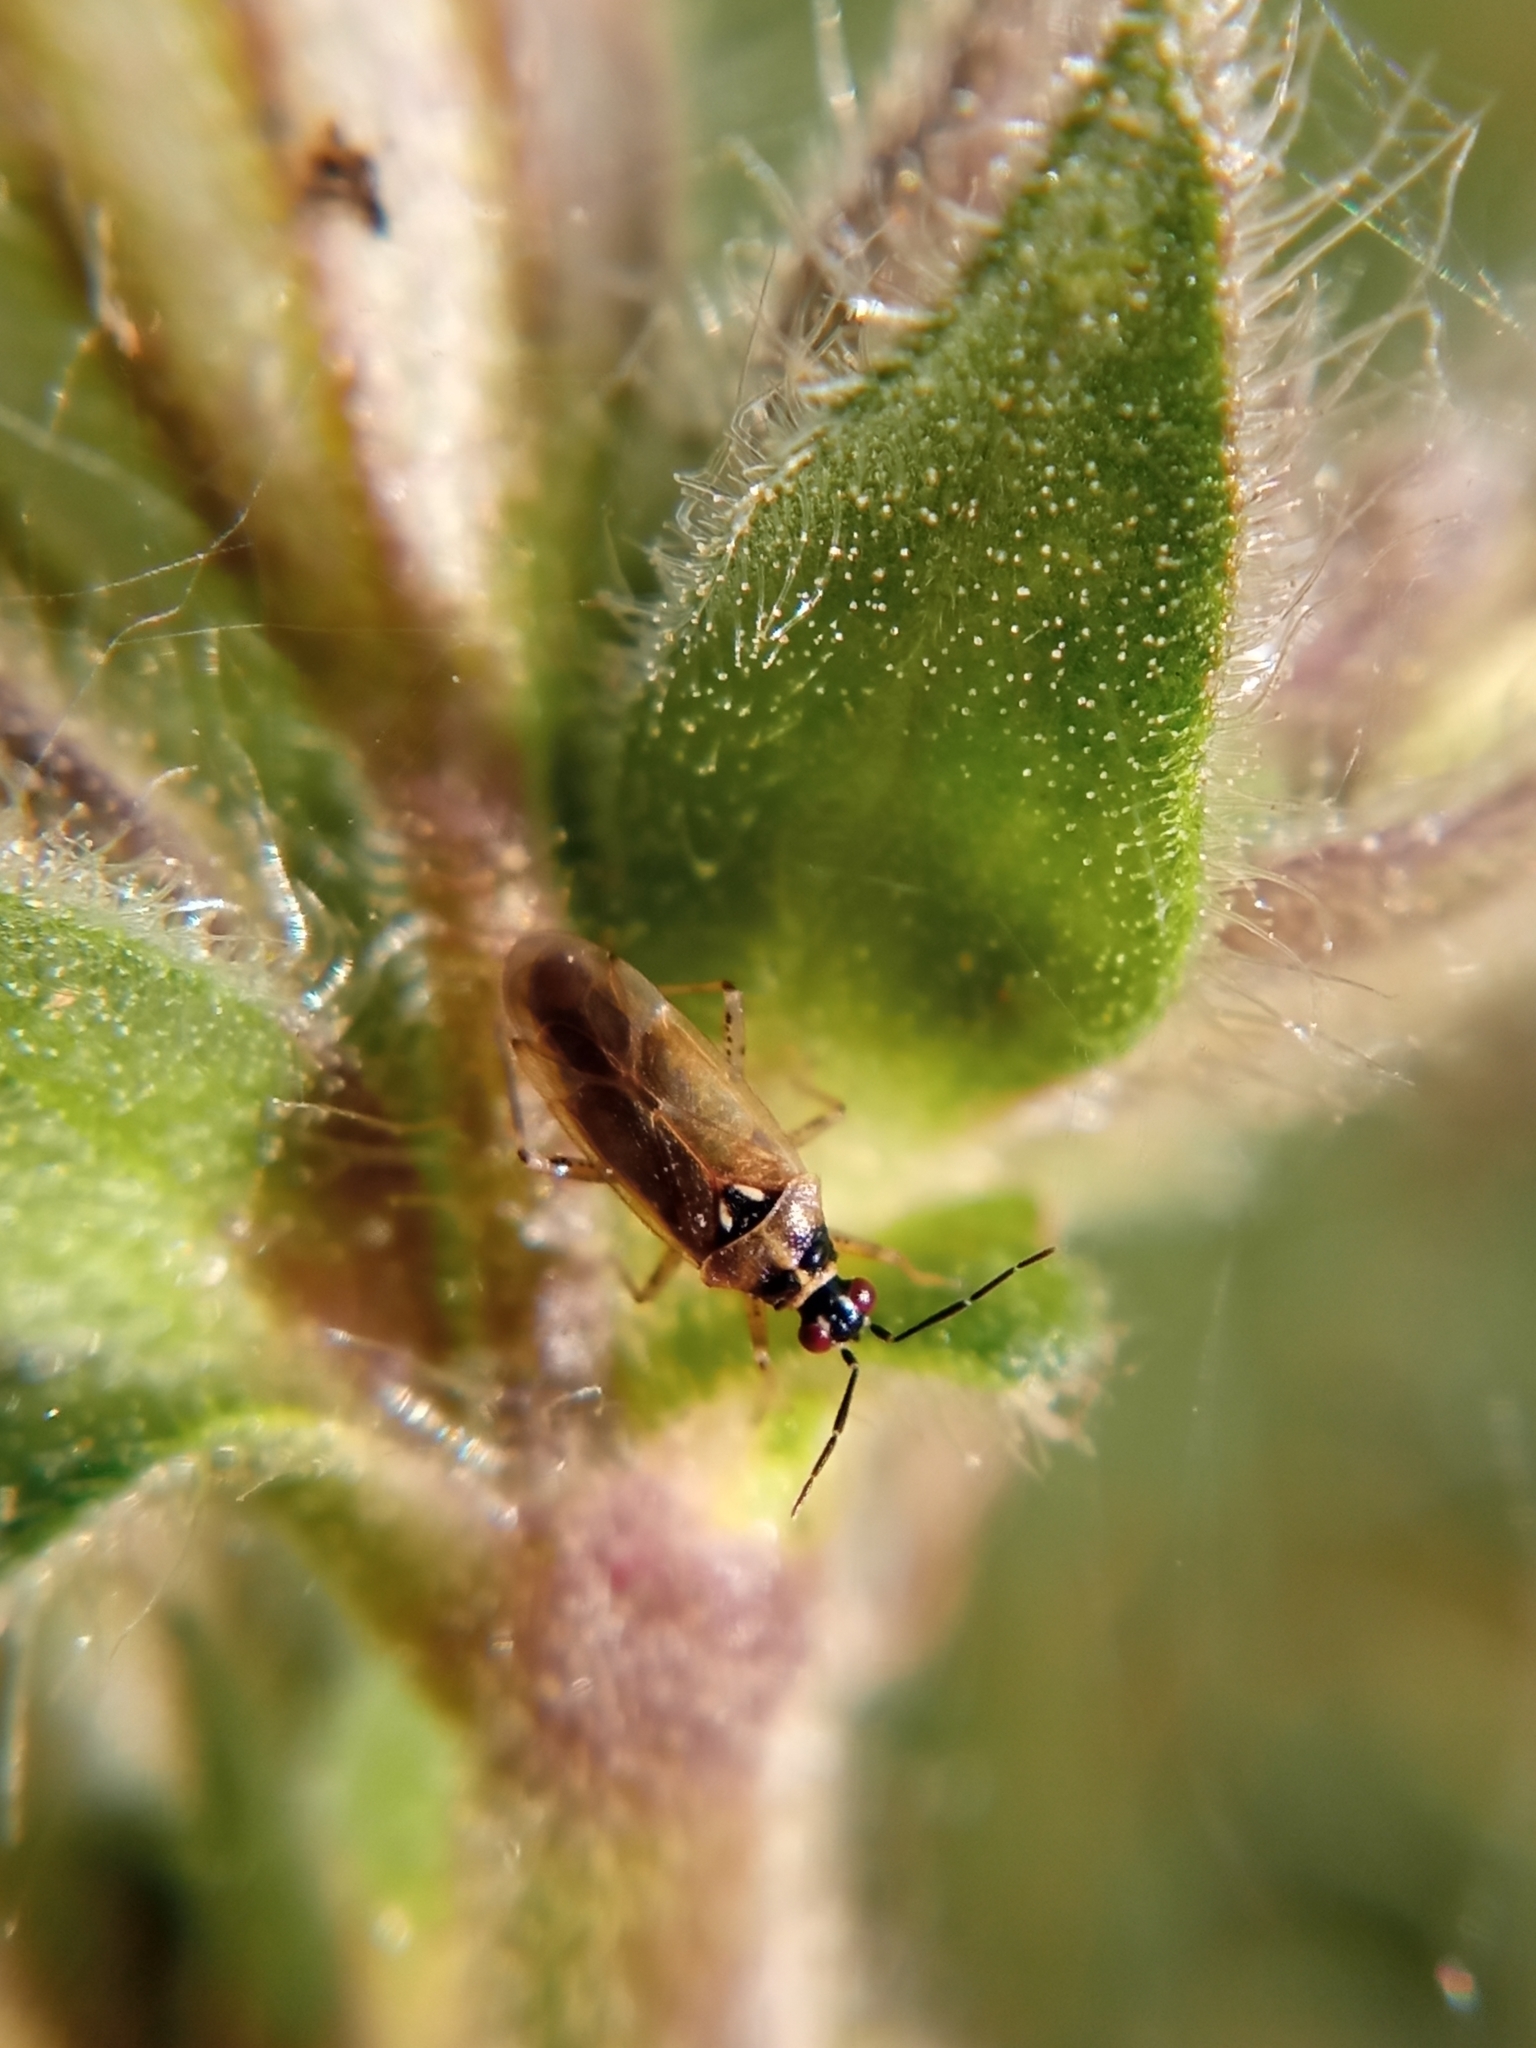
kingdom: Animalia
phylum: Arthropoda
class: Insecta
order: Hemiptera
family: Miridae
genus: Dicyphus
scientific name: Dicyphus globulifer
